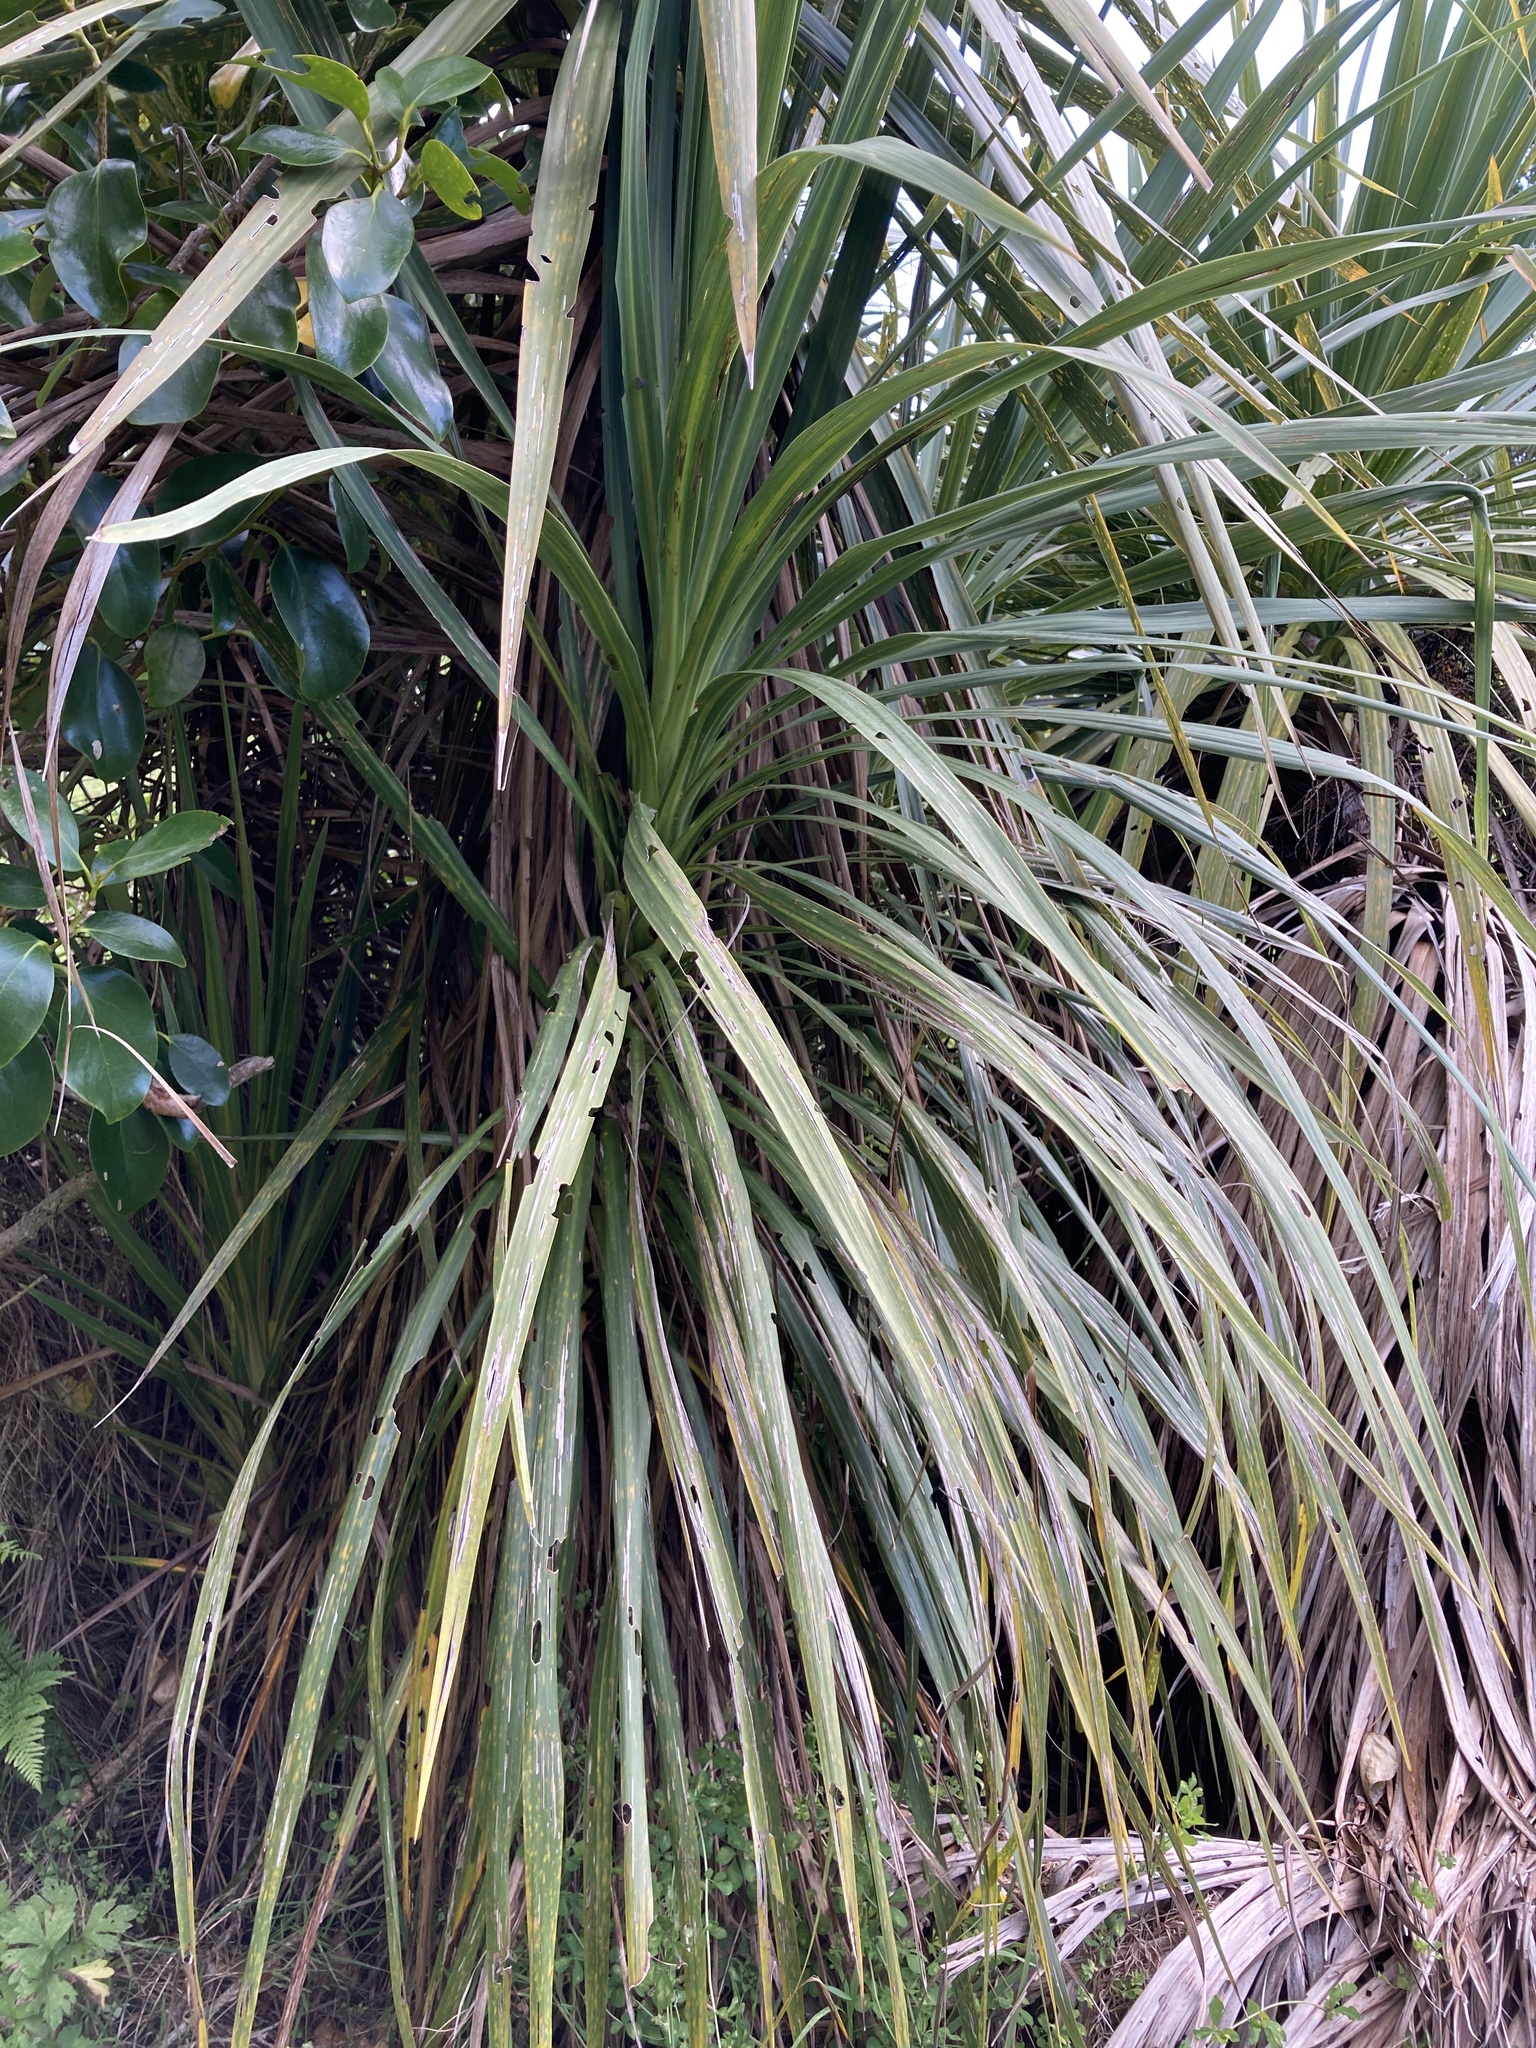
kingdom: Plantae
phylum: Tracheophyta
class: Liliopsida
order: Asparagales
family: Asparagaceae
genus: Cordyline
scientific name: Cordyline australis
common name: Cabbage-palm
